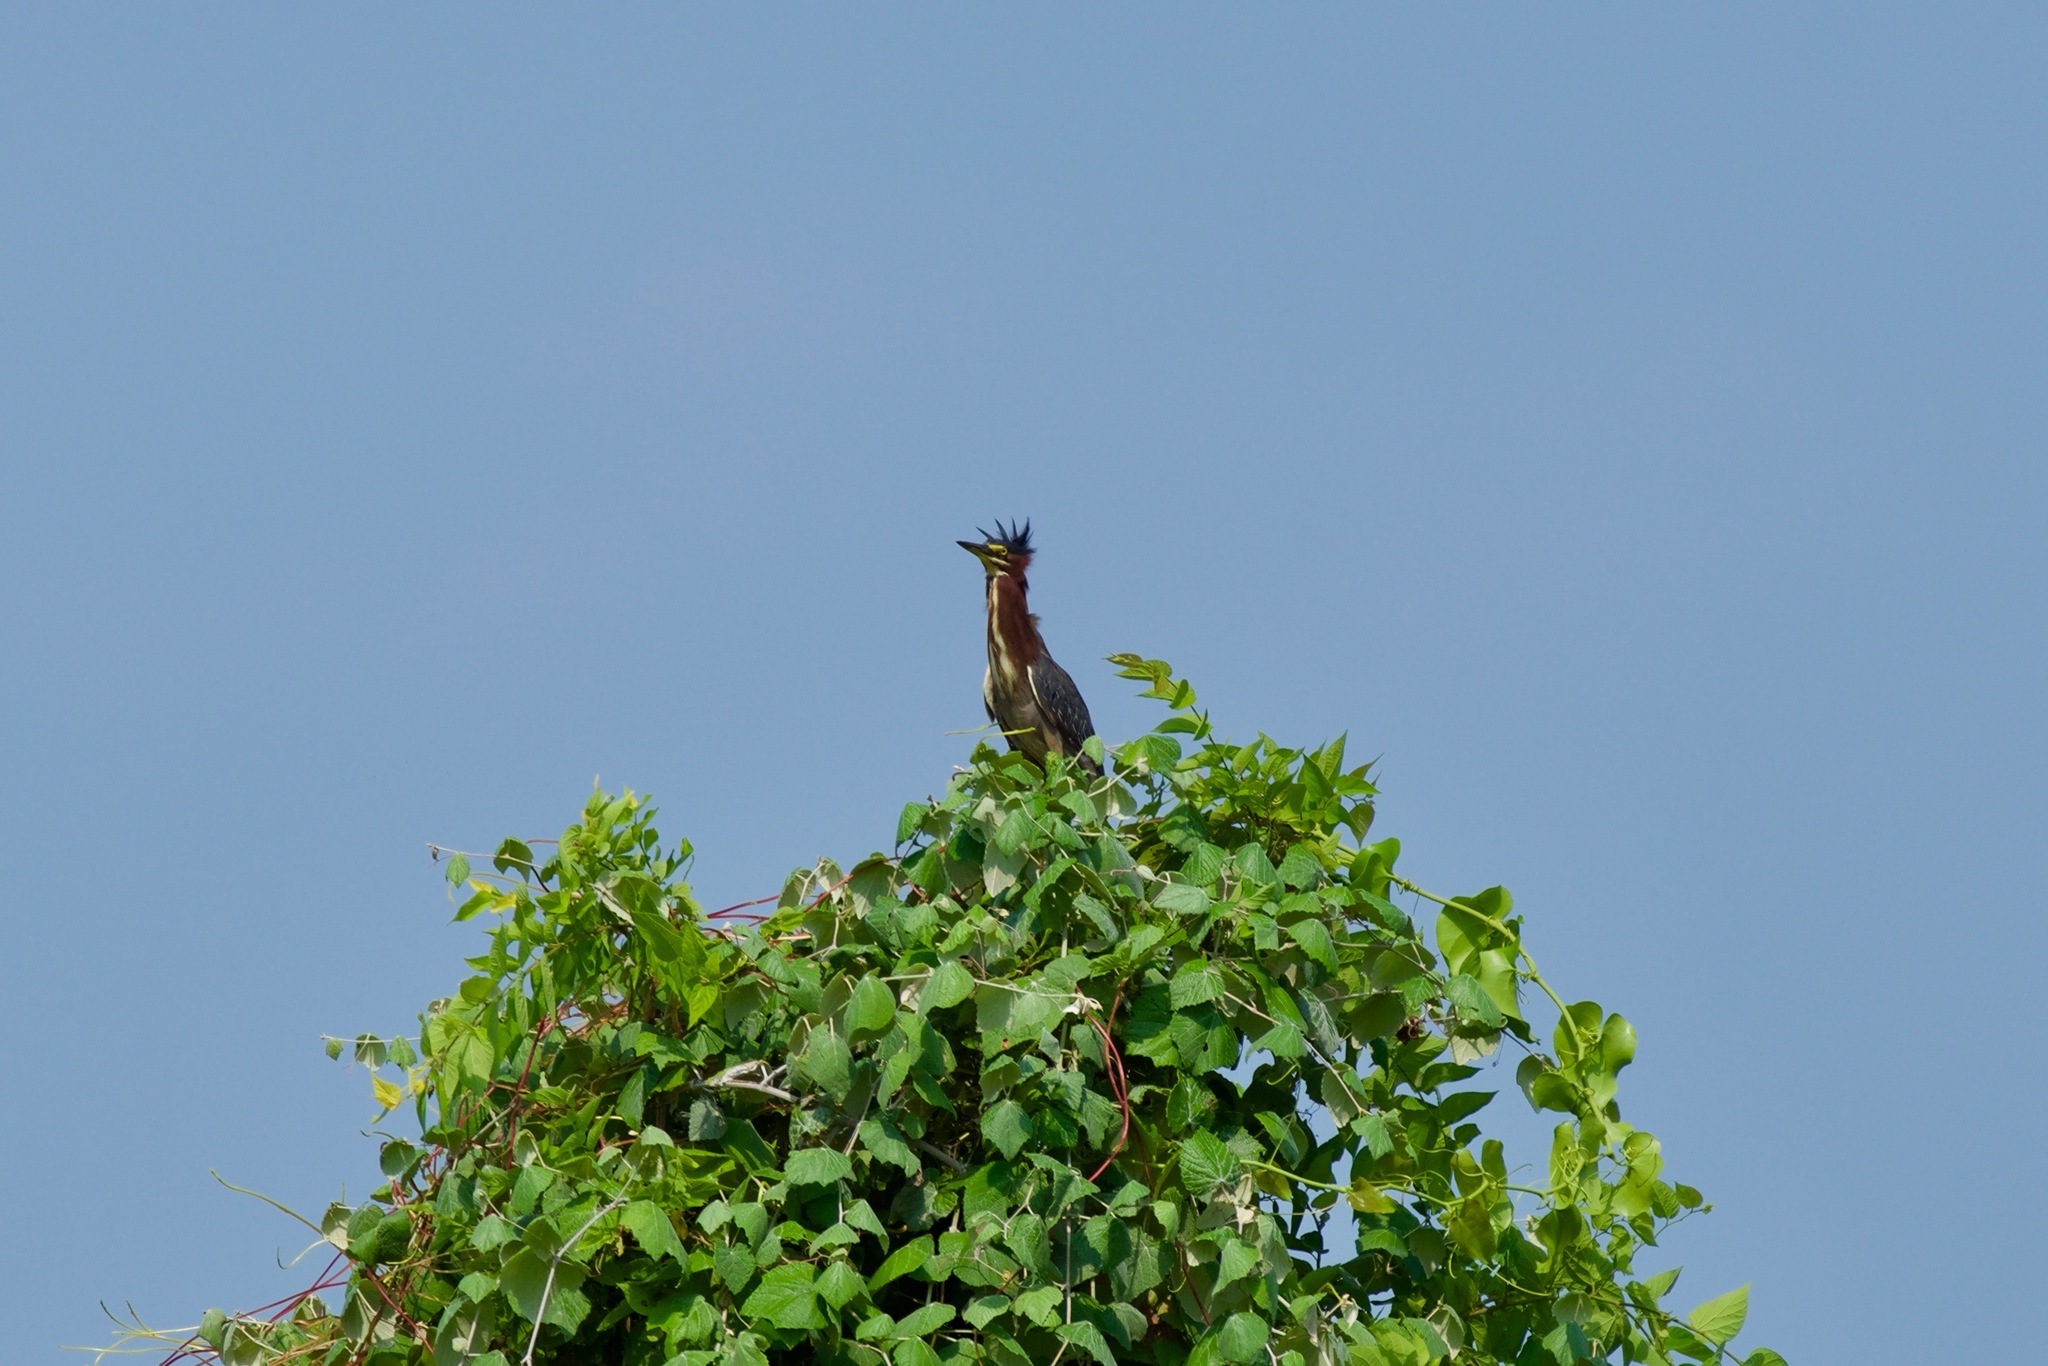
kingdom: Animalia
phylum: Chordata
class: Aves
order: Pelecaniformes
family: Ardeidae
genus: Butorides
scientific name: Butorides virescens
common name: Green heron
